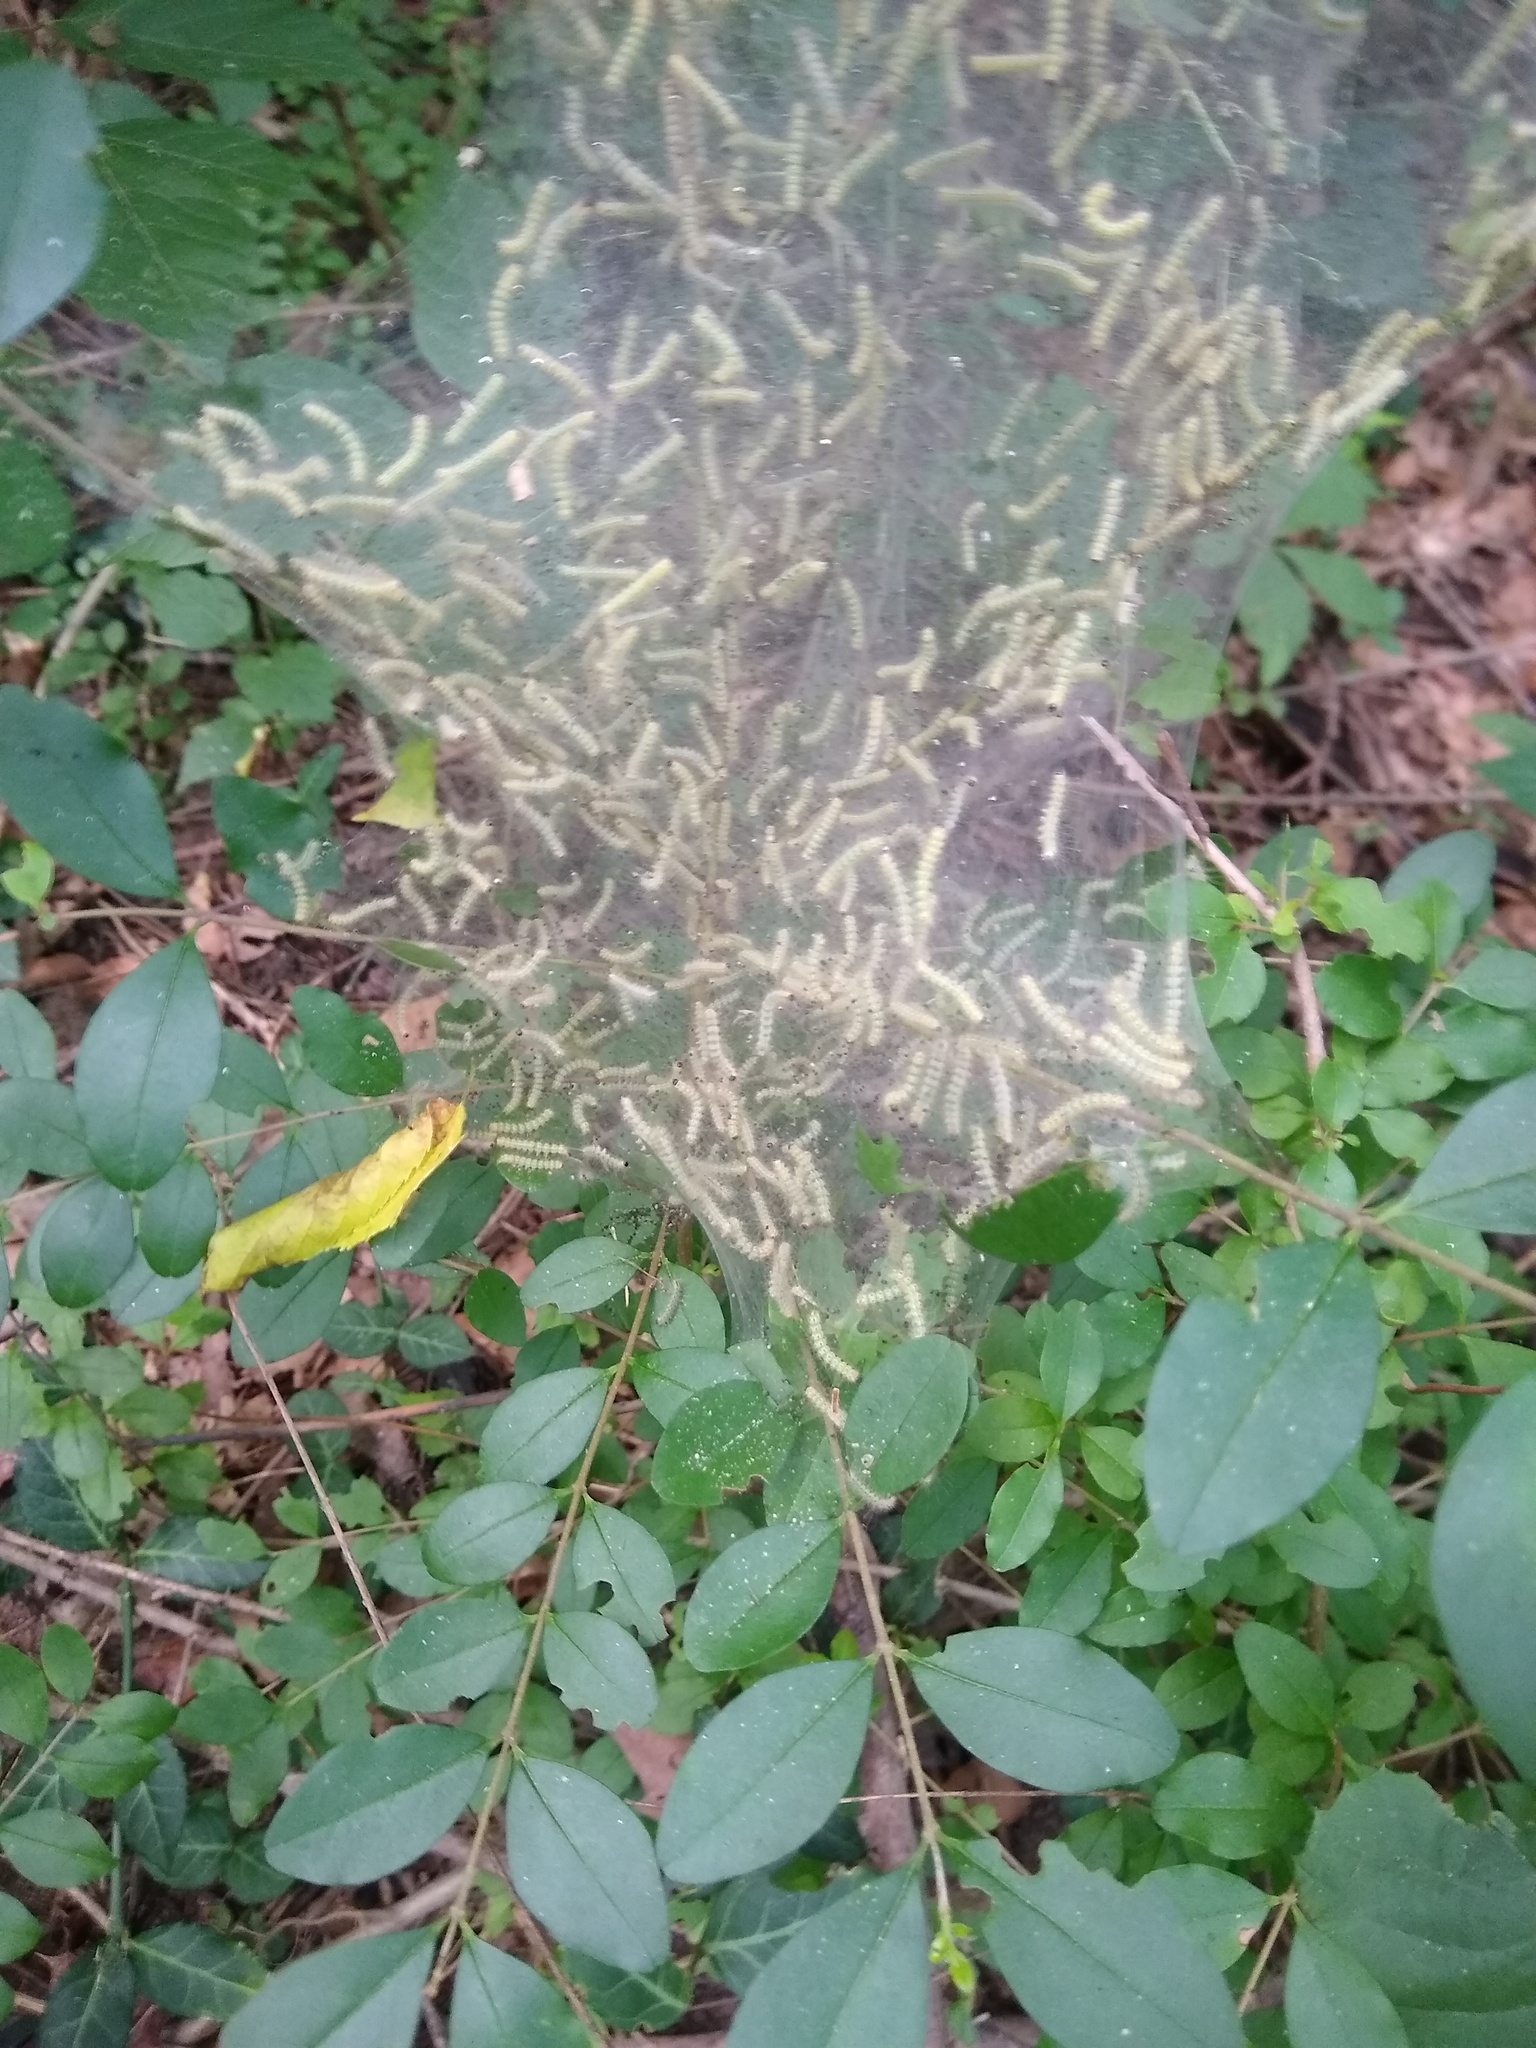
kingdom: Animalia
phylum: Arthropoda
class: Insecta
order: Lepidoptera
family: Erebidae
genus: Hyphantria
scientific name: Hyphantria cunea
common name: American white moth
